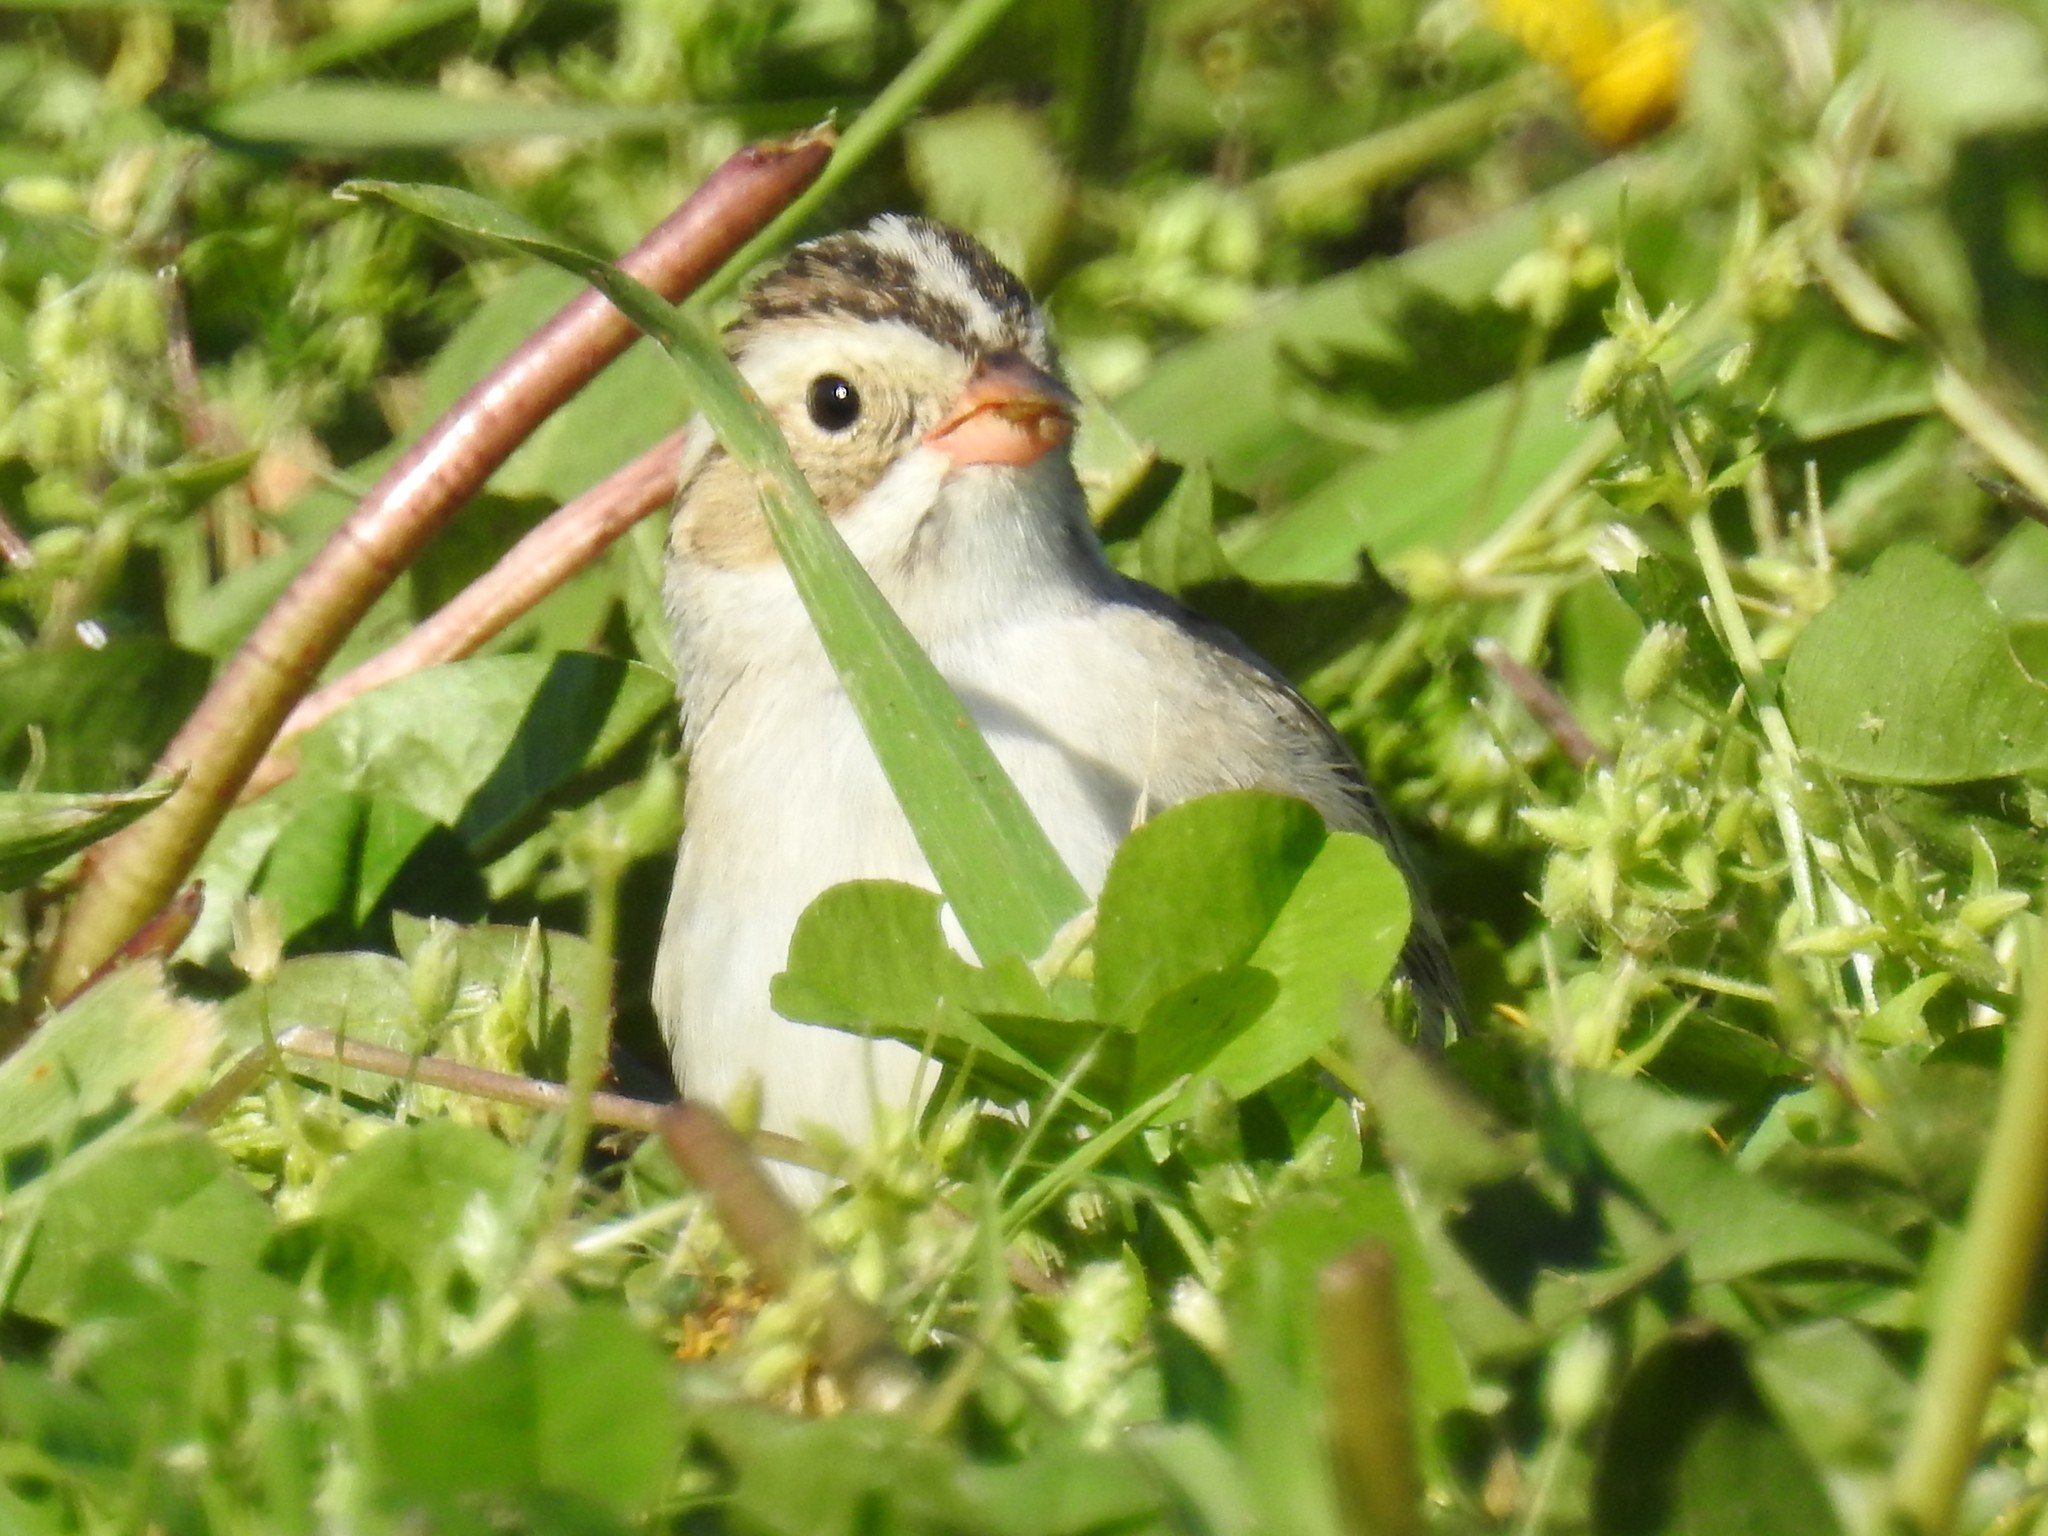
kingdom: Animalia
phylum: Chordata
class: Aves
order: Passeriformes
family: Passerellidae
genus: Spizella
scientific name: Spizella pallida
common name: Clay-colored sparrow
